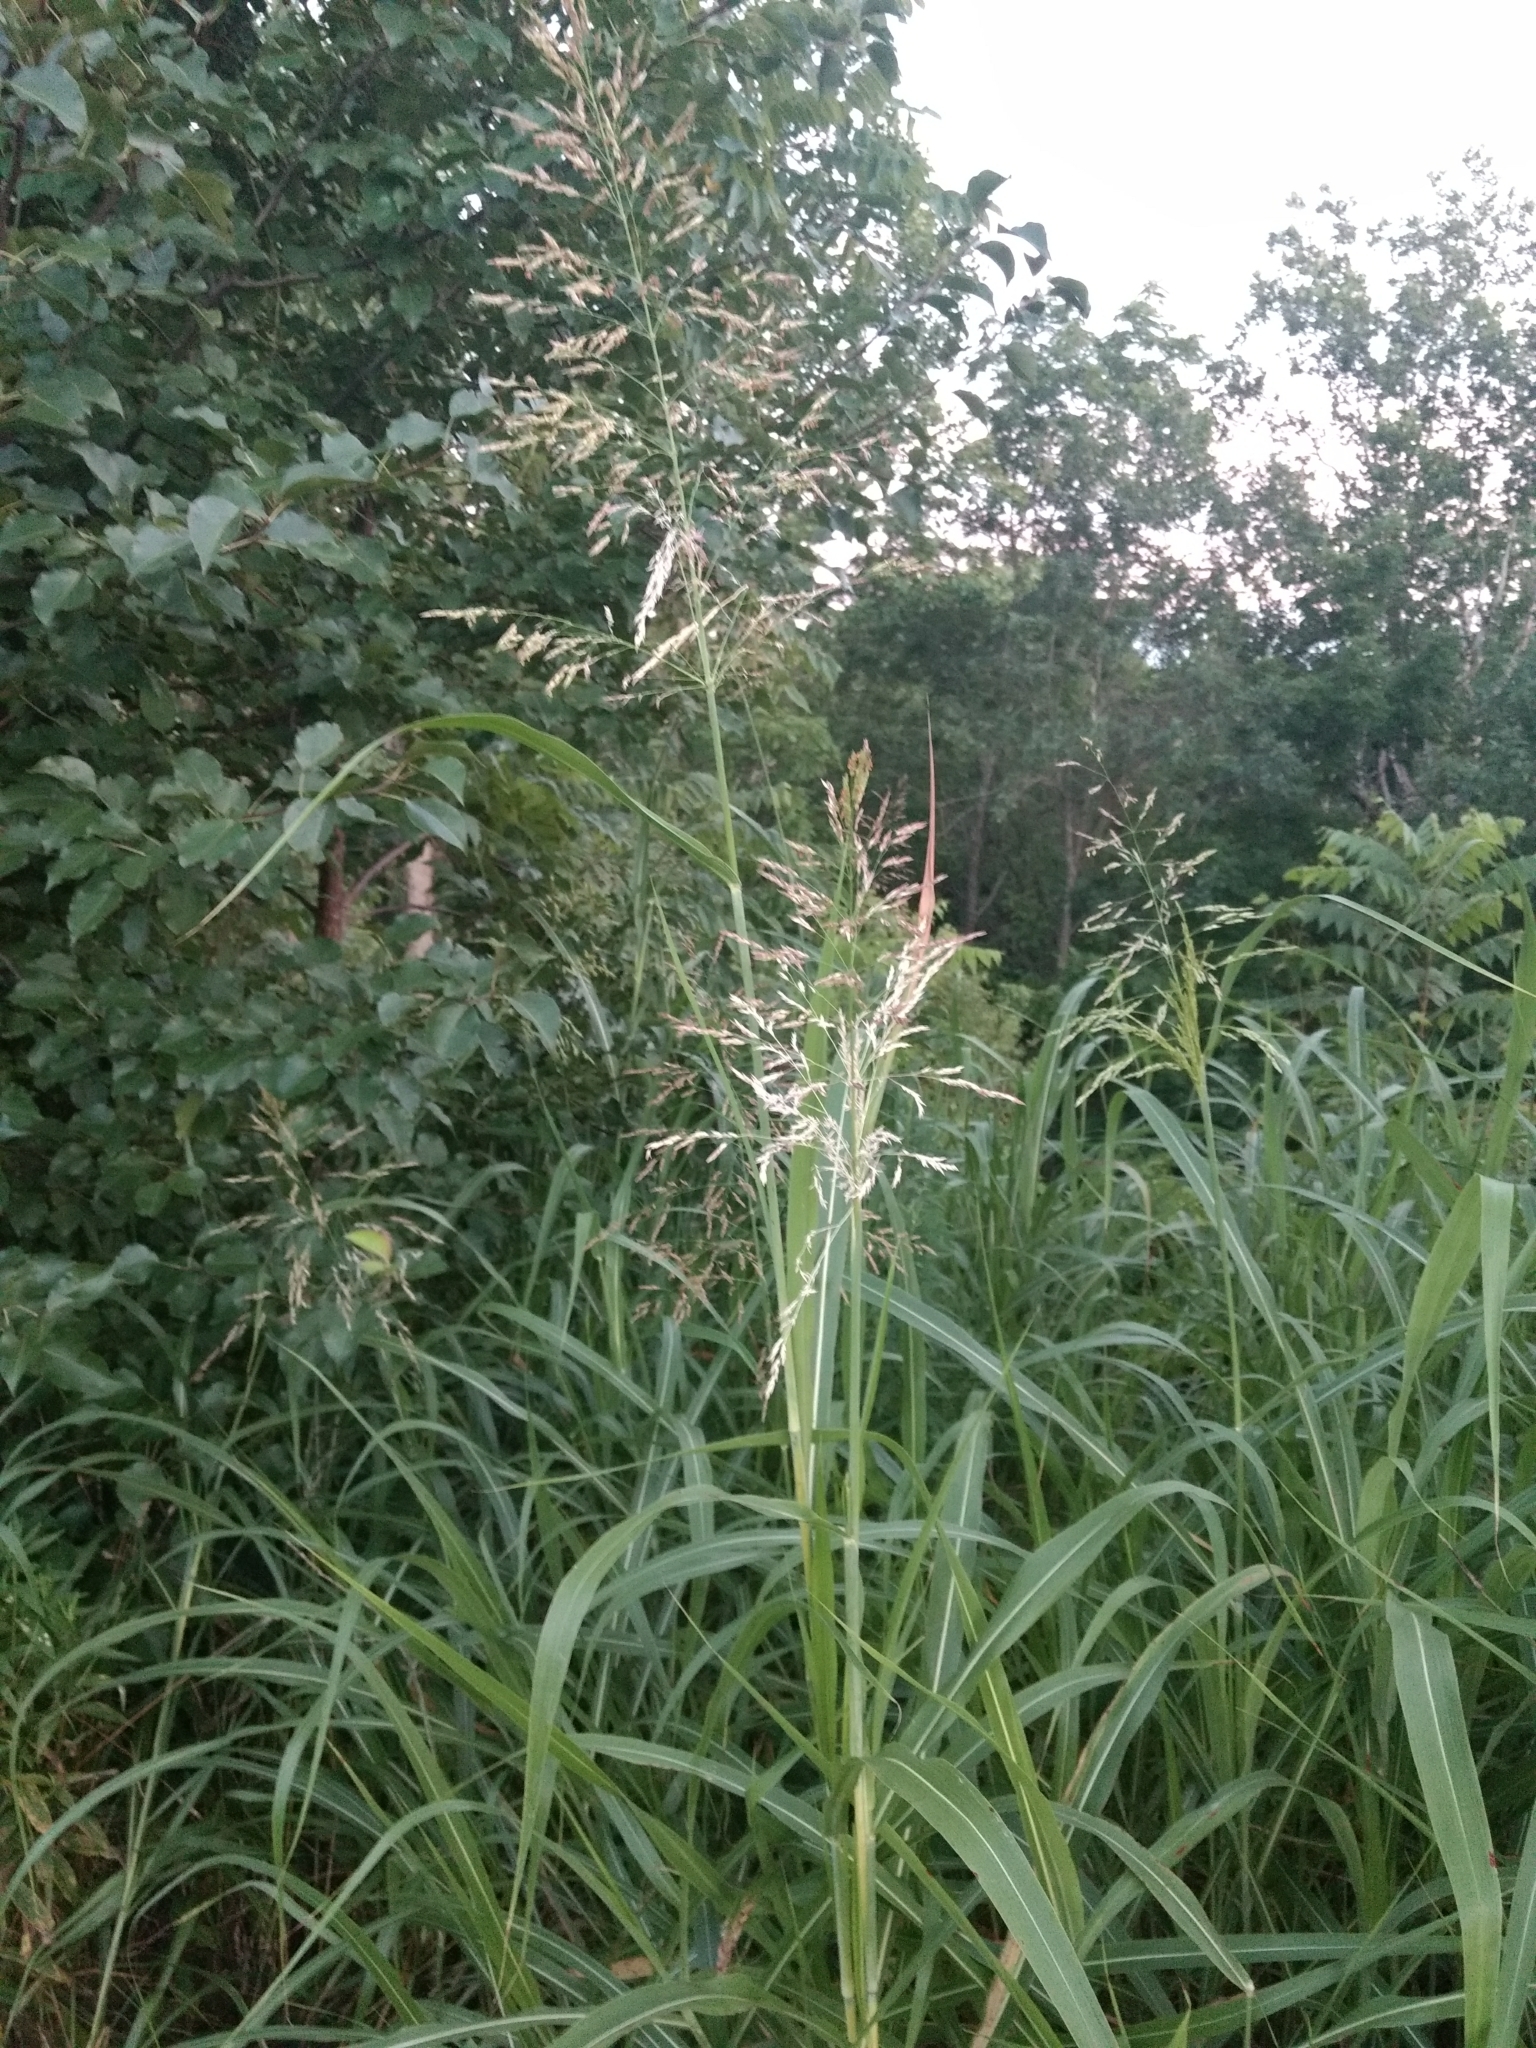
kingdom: Plantae
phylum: Tracheophyta
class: Liliopsida
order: Poales
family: Poaceae
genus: Sorghum
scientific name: Sorghum halepense
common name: Johnson-grass
